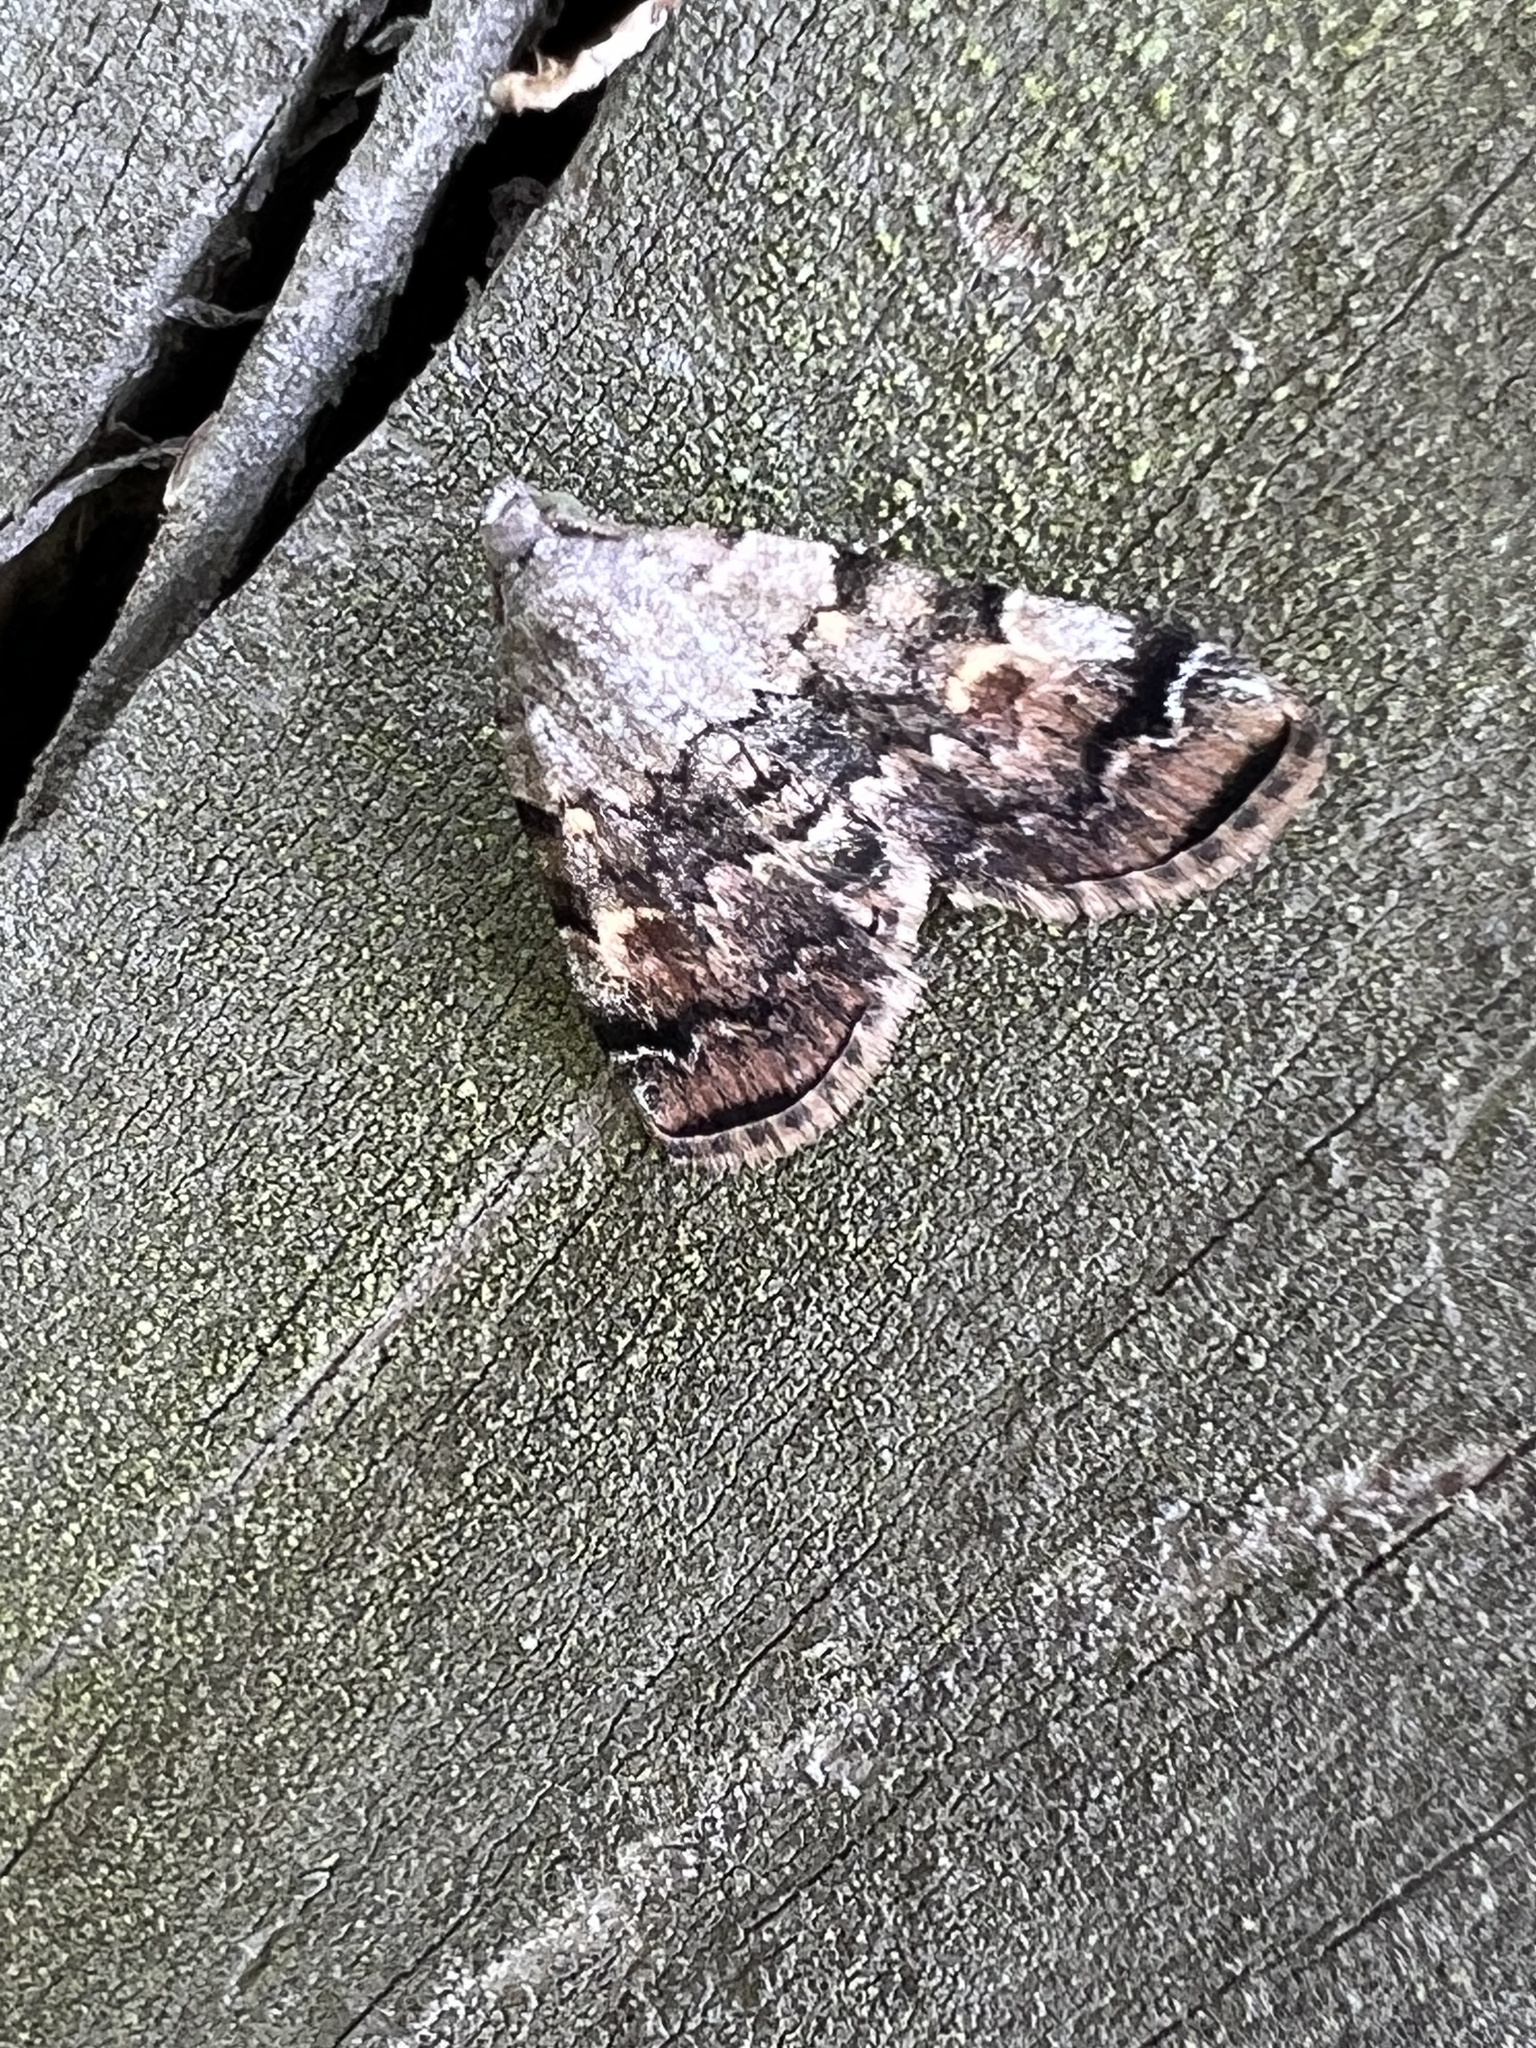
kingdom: Animalia
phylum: Arthropoda
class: Insecta
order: Lepidoptera
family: Erebidae
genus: Idia
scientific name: Idia americalis
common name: American idia moth
